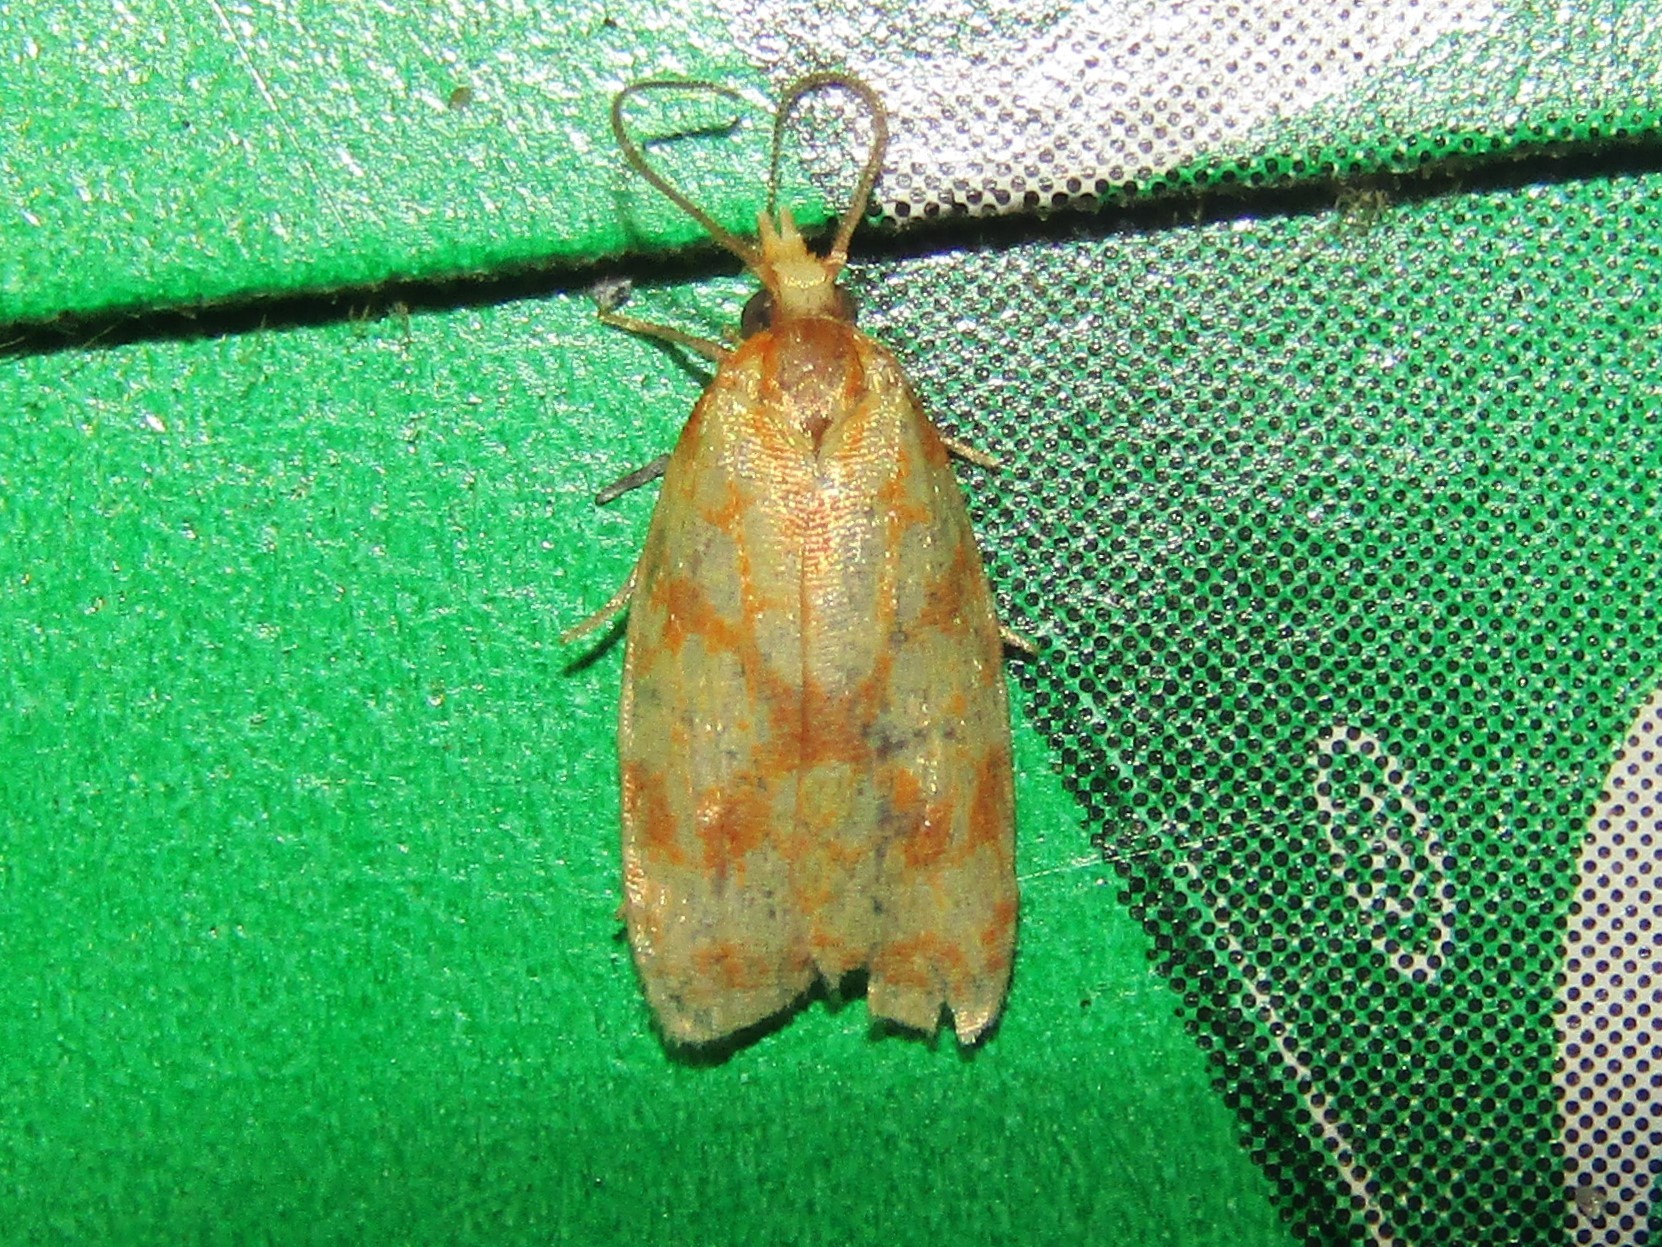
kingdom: Animalia
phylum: Arthropoda
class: Insecta
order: Lepidoptera
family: Tortricidae
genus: Sparganothis
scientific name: Sparganothis sulfureana
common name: Sparganothis fruitworm moth
